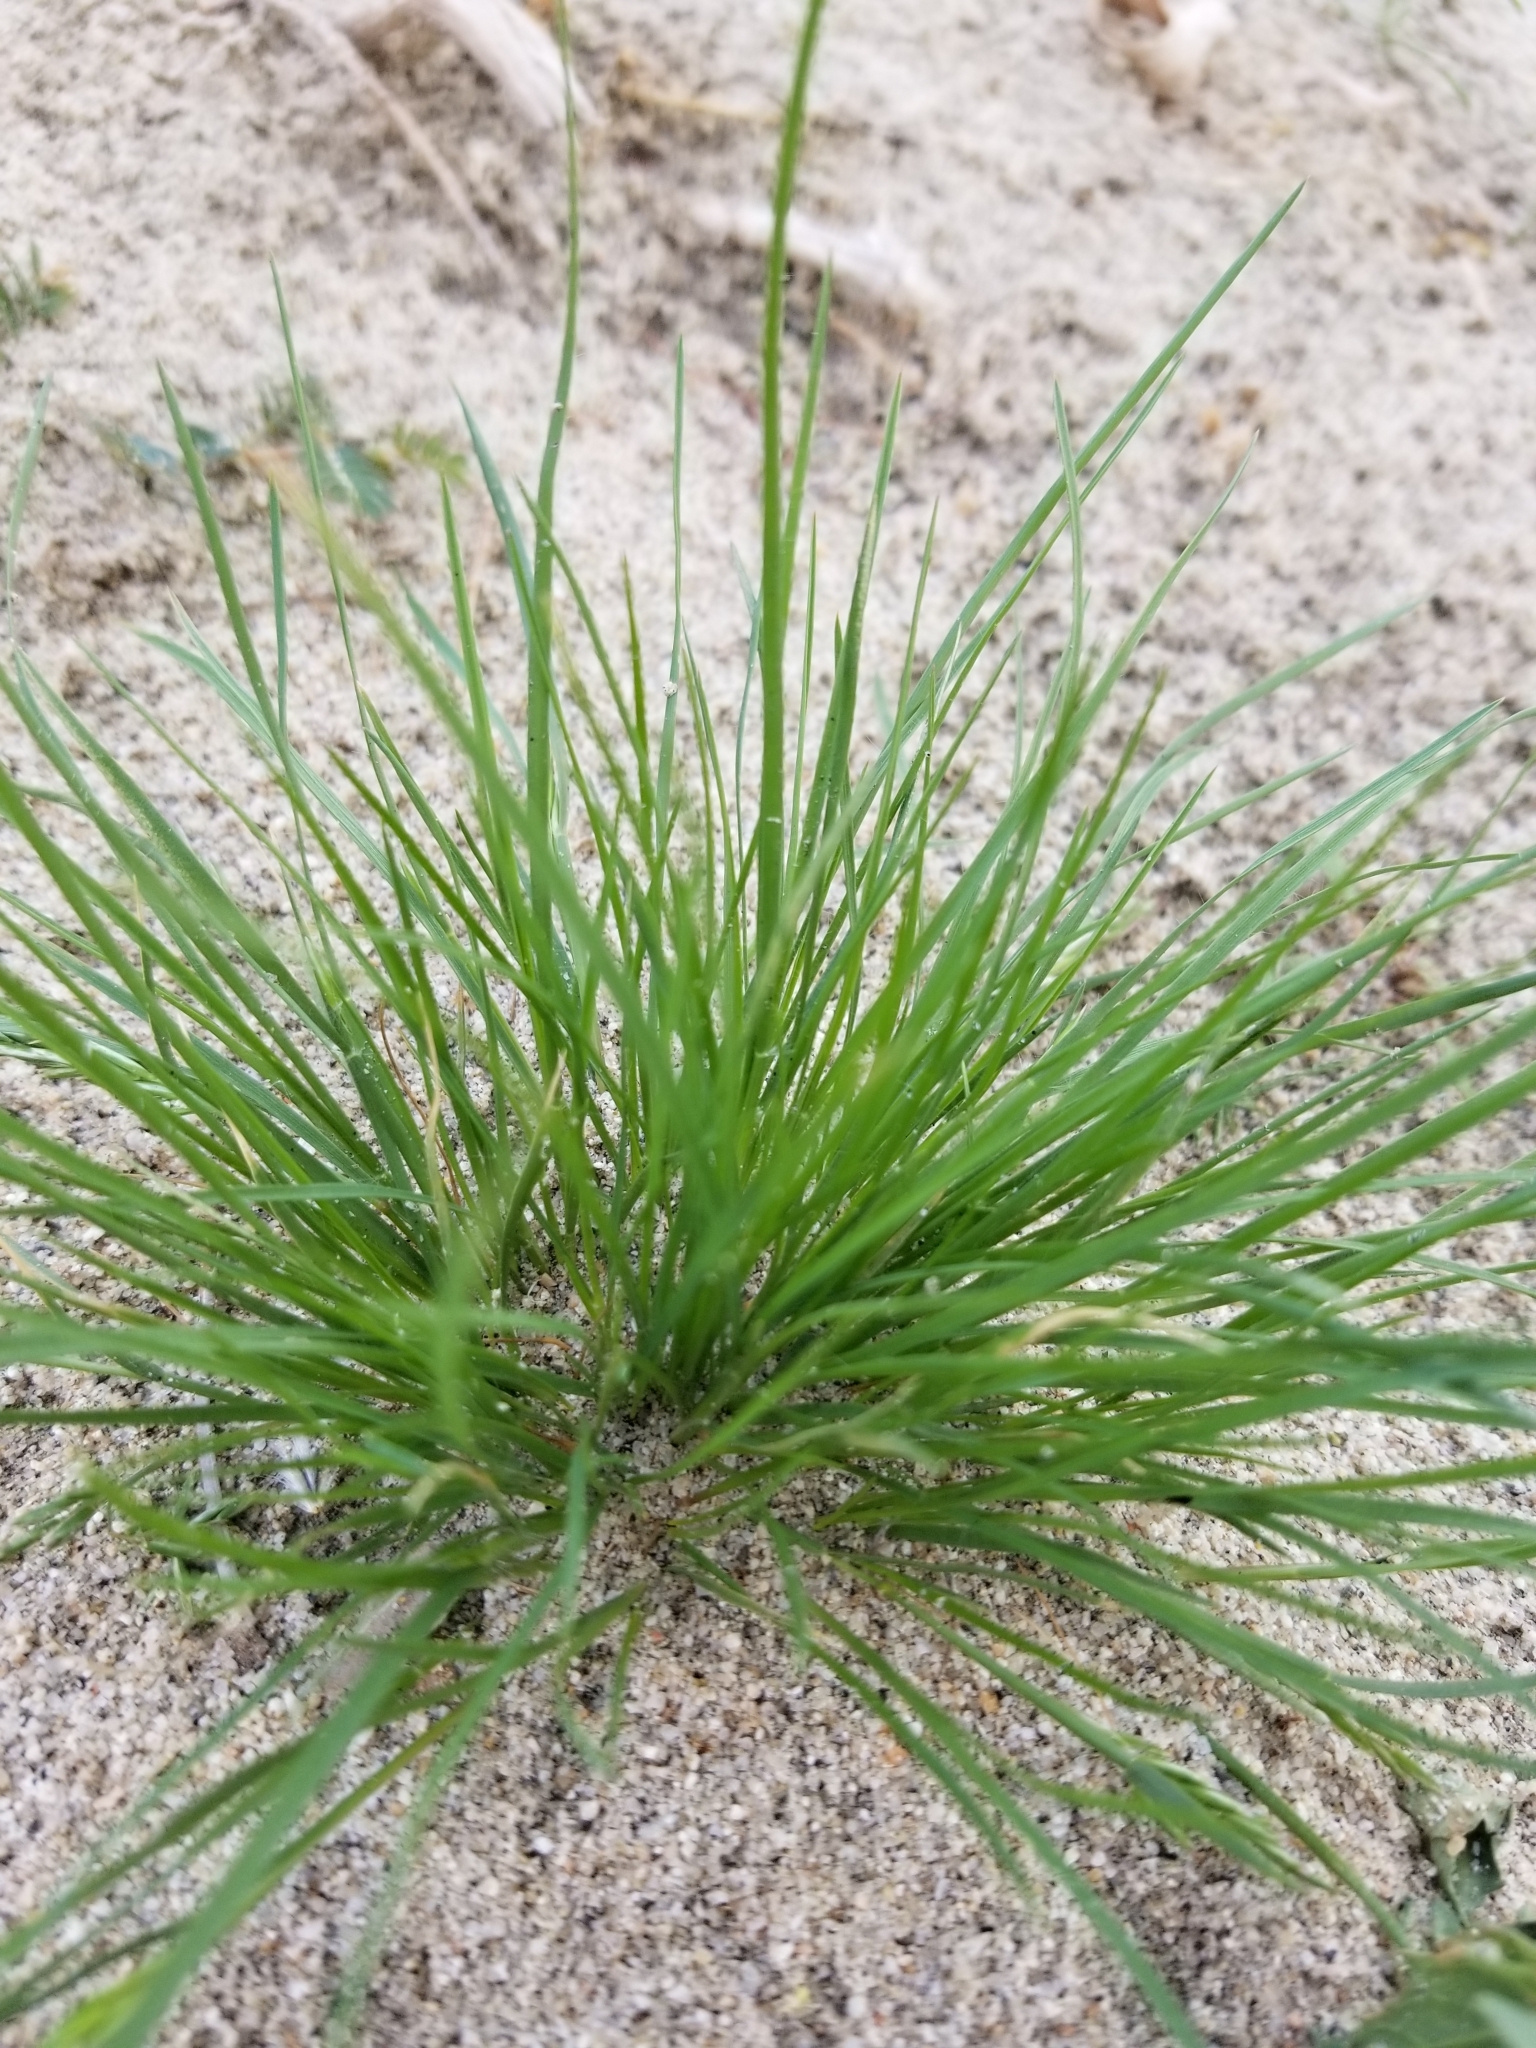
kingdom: Plantae
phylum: Tracheophyta
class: Liliopsida
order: Poales
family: Poaceae
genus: Schismus
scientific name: Schismus barbatus
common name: Kelch-grass
